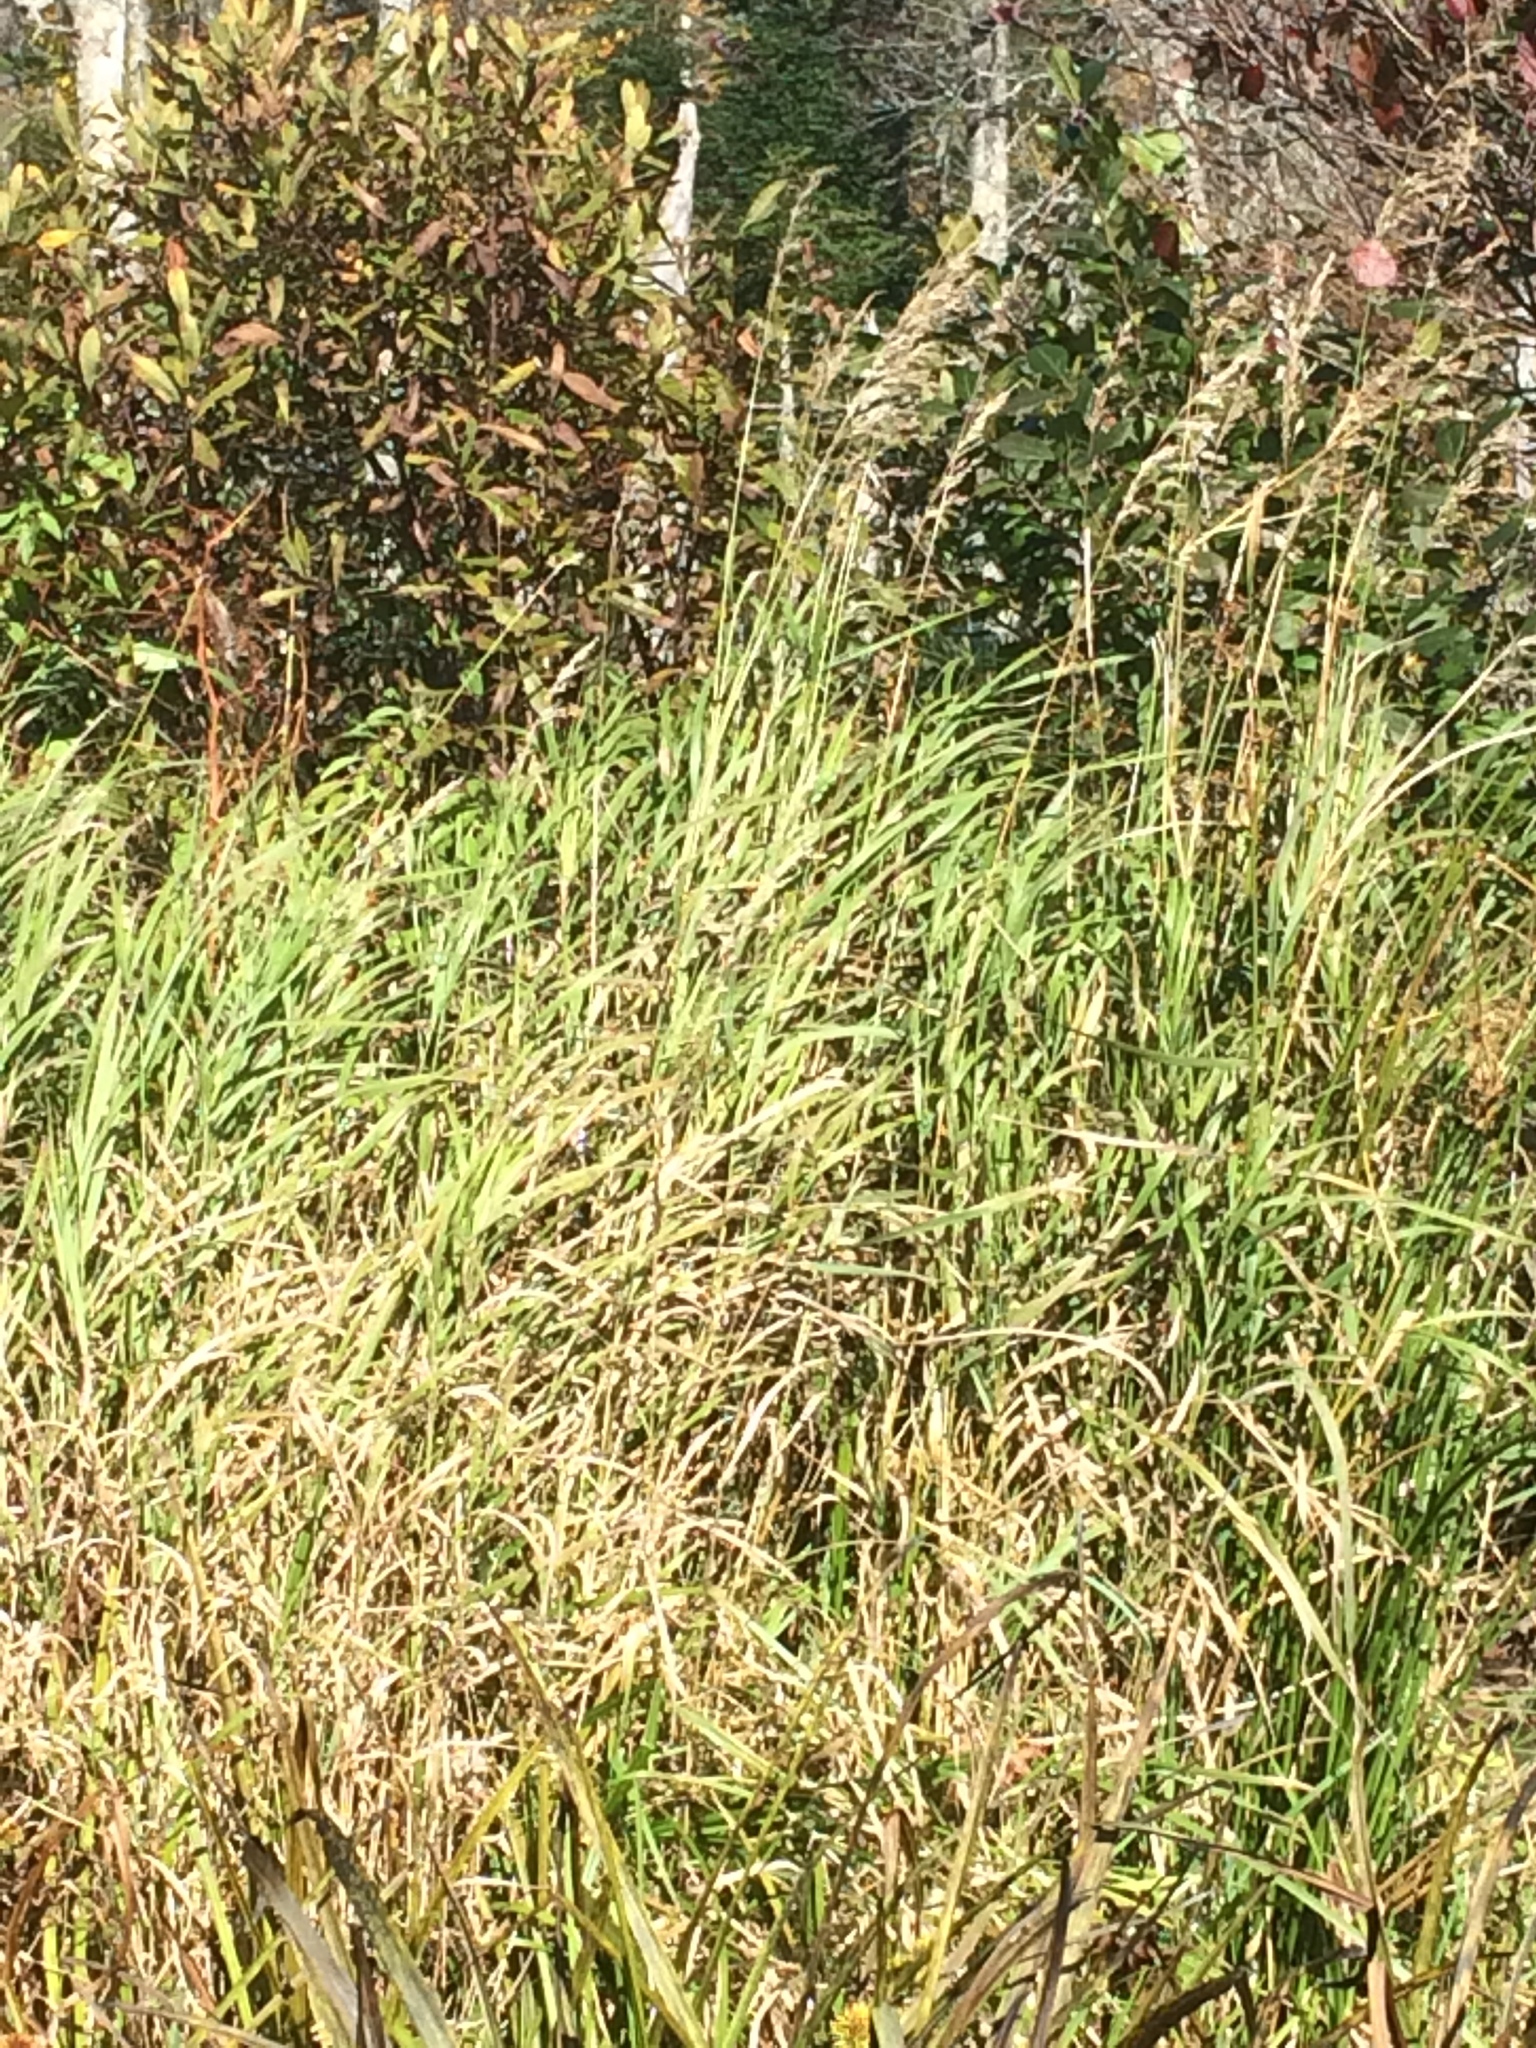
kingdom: Plantae
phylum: Tracheophyta
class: Liliopsida
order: Poales
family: Poaceae
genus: Calamagrostis
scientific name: Calamagrostis canadensis
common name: Canada bluejoint
